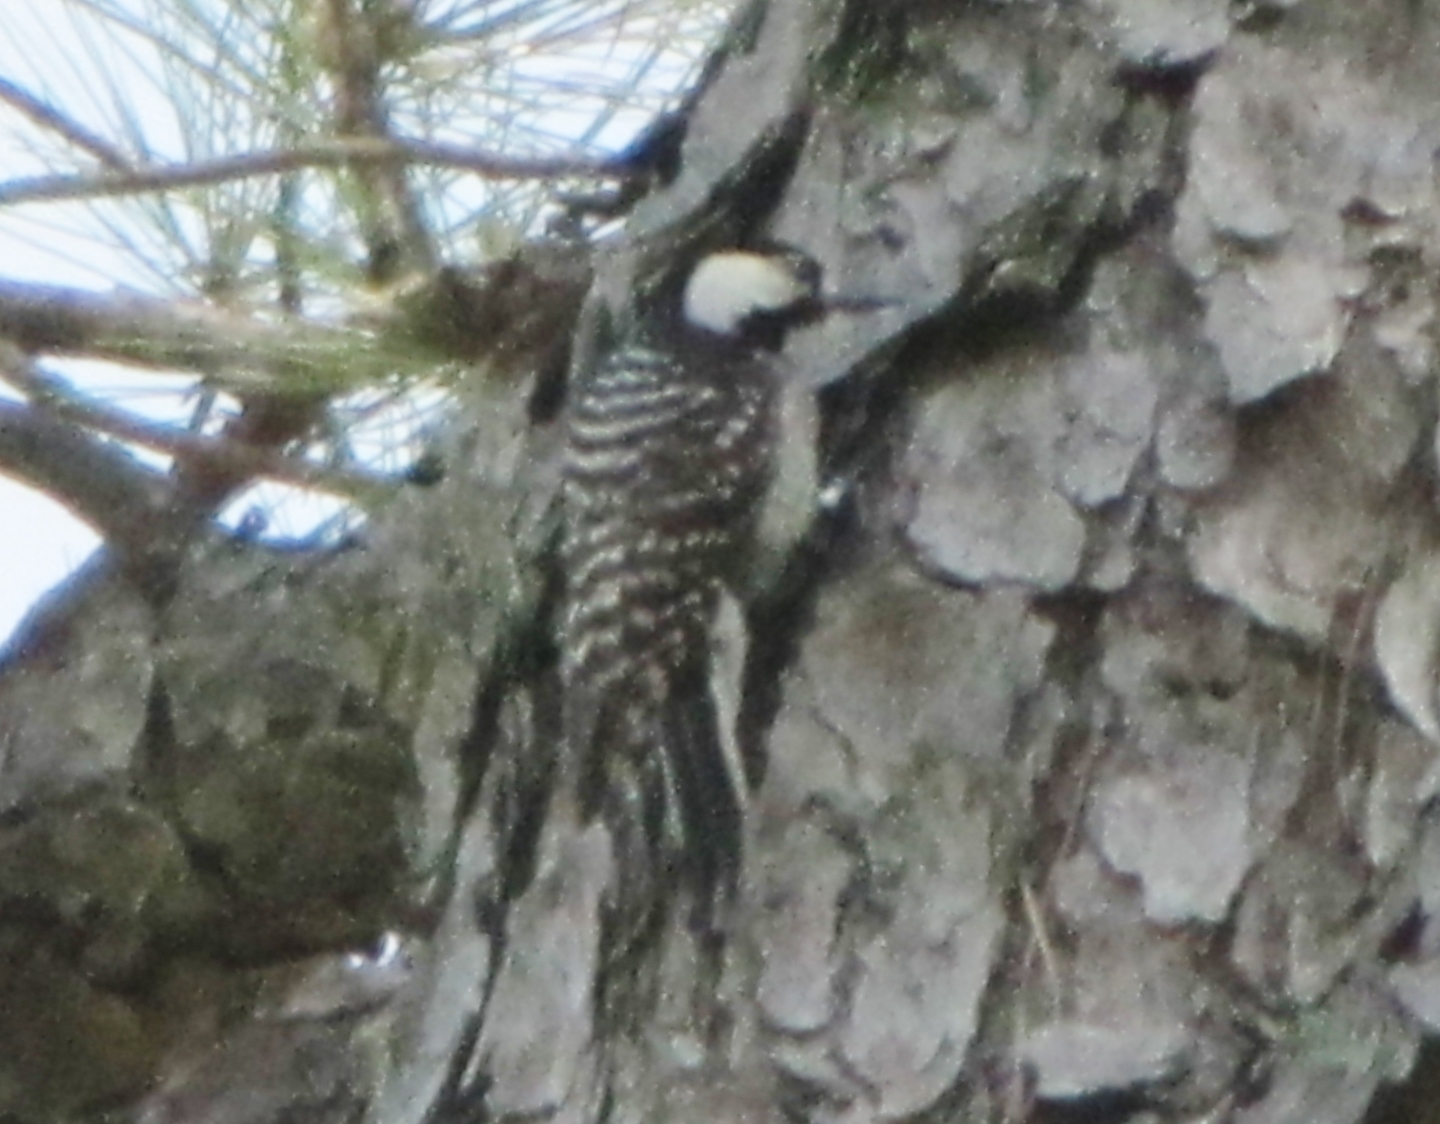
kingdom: Animalia
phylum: Chordata
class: Aves
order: Piciformes
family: Picidae
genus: Leuconotopicus
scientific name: Leuconotopicus borealis
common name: Red-cockaded woodpecker
